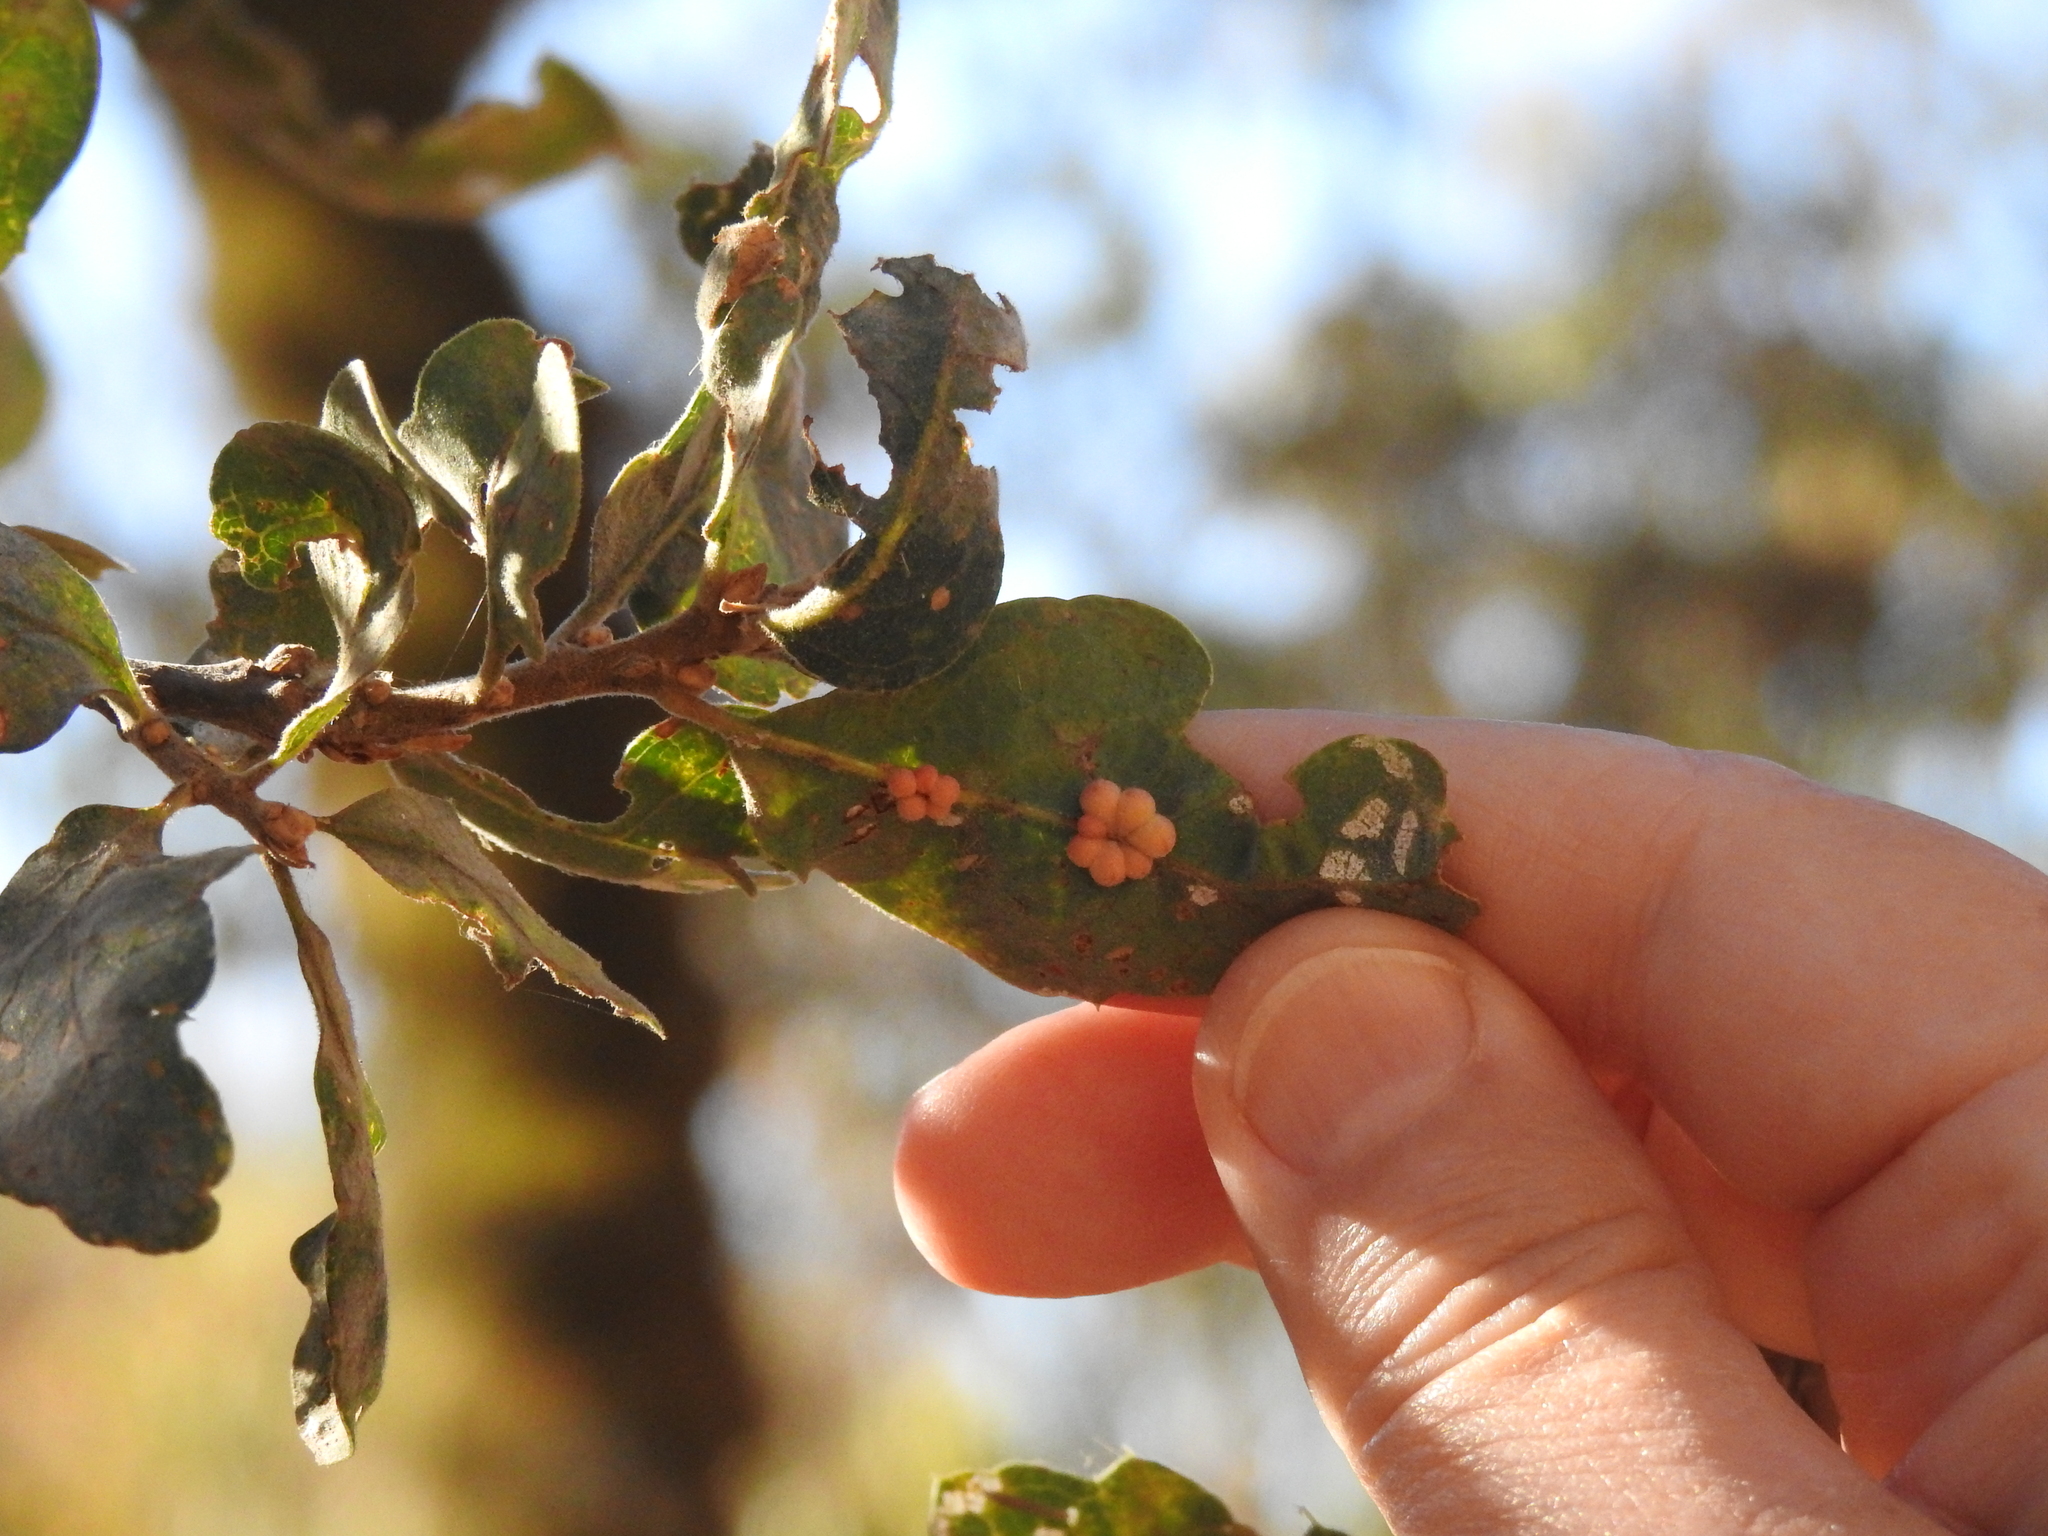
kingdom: Animalia
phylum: Arthropoda
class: Insecta
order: Hymenoptera
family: Cynipidae
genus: Andricus
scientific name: Andricus
